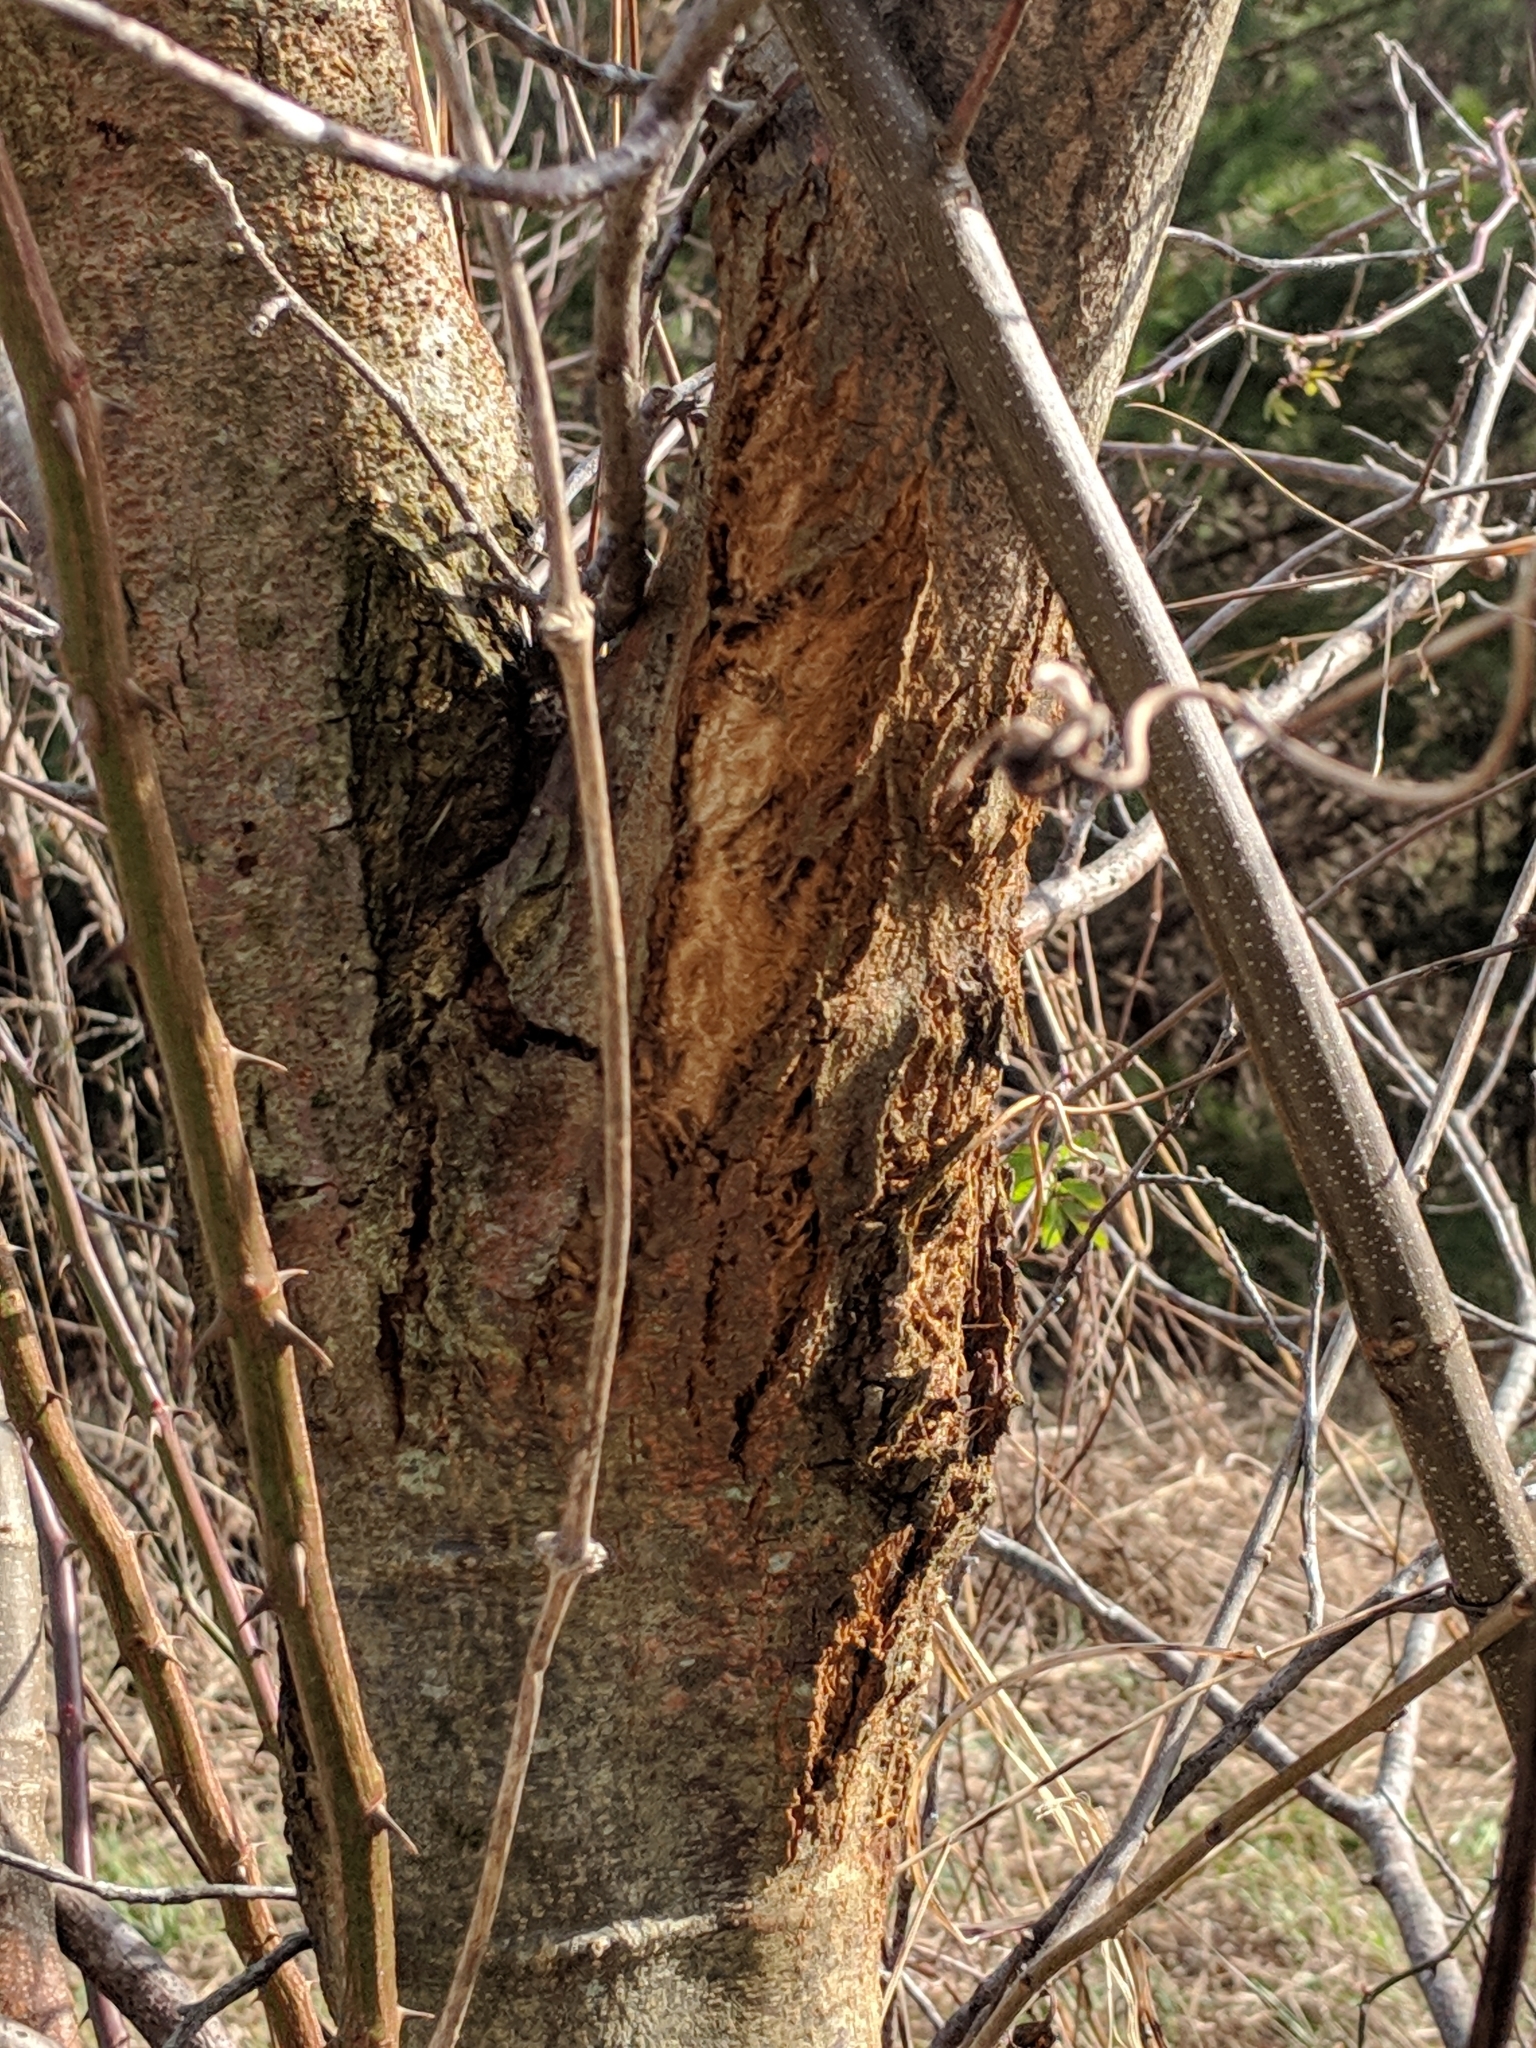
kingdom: Fungi
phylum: Ascomycota
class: Sordariomycetes
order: Diaporthales
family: Cryphonectriaceae
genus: Cryphonectria
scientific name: Cryphonectria parasitica
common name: Chestnut blight
